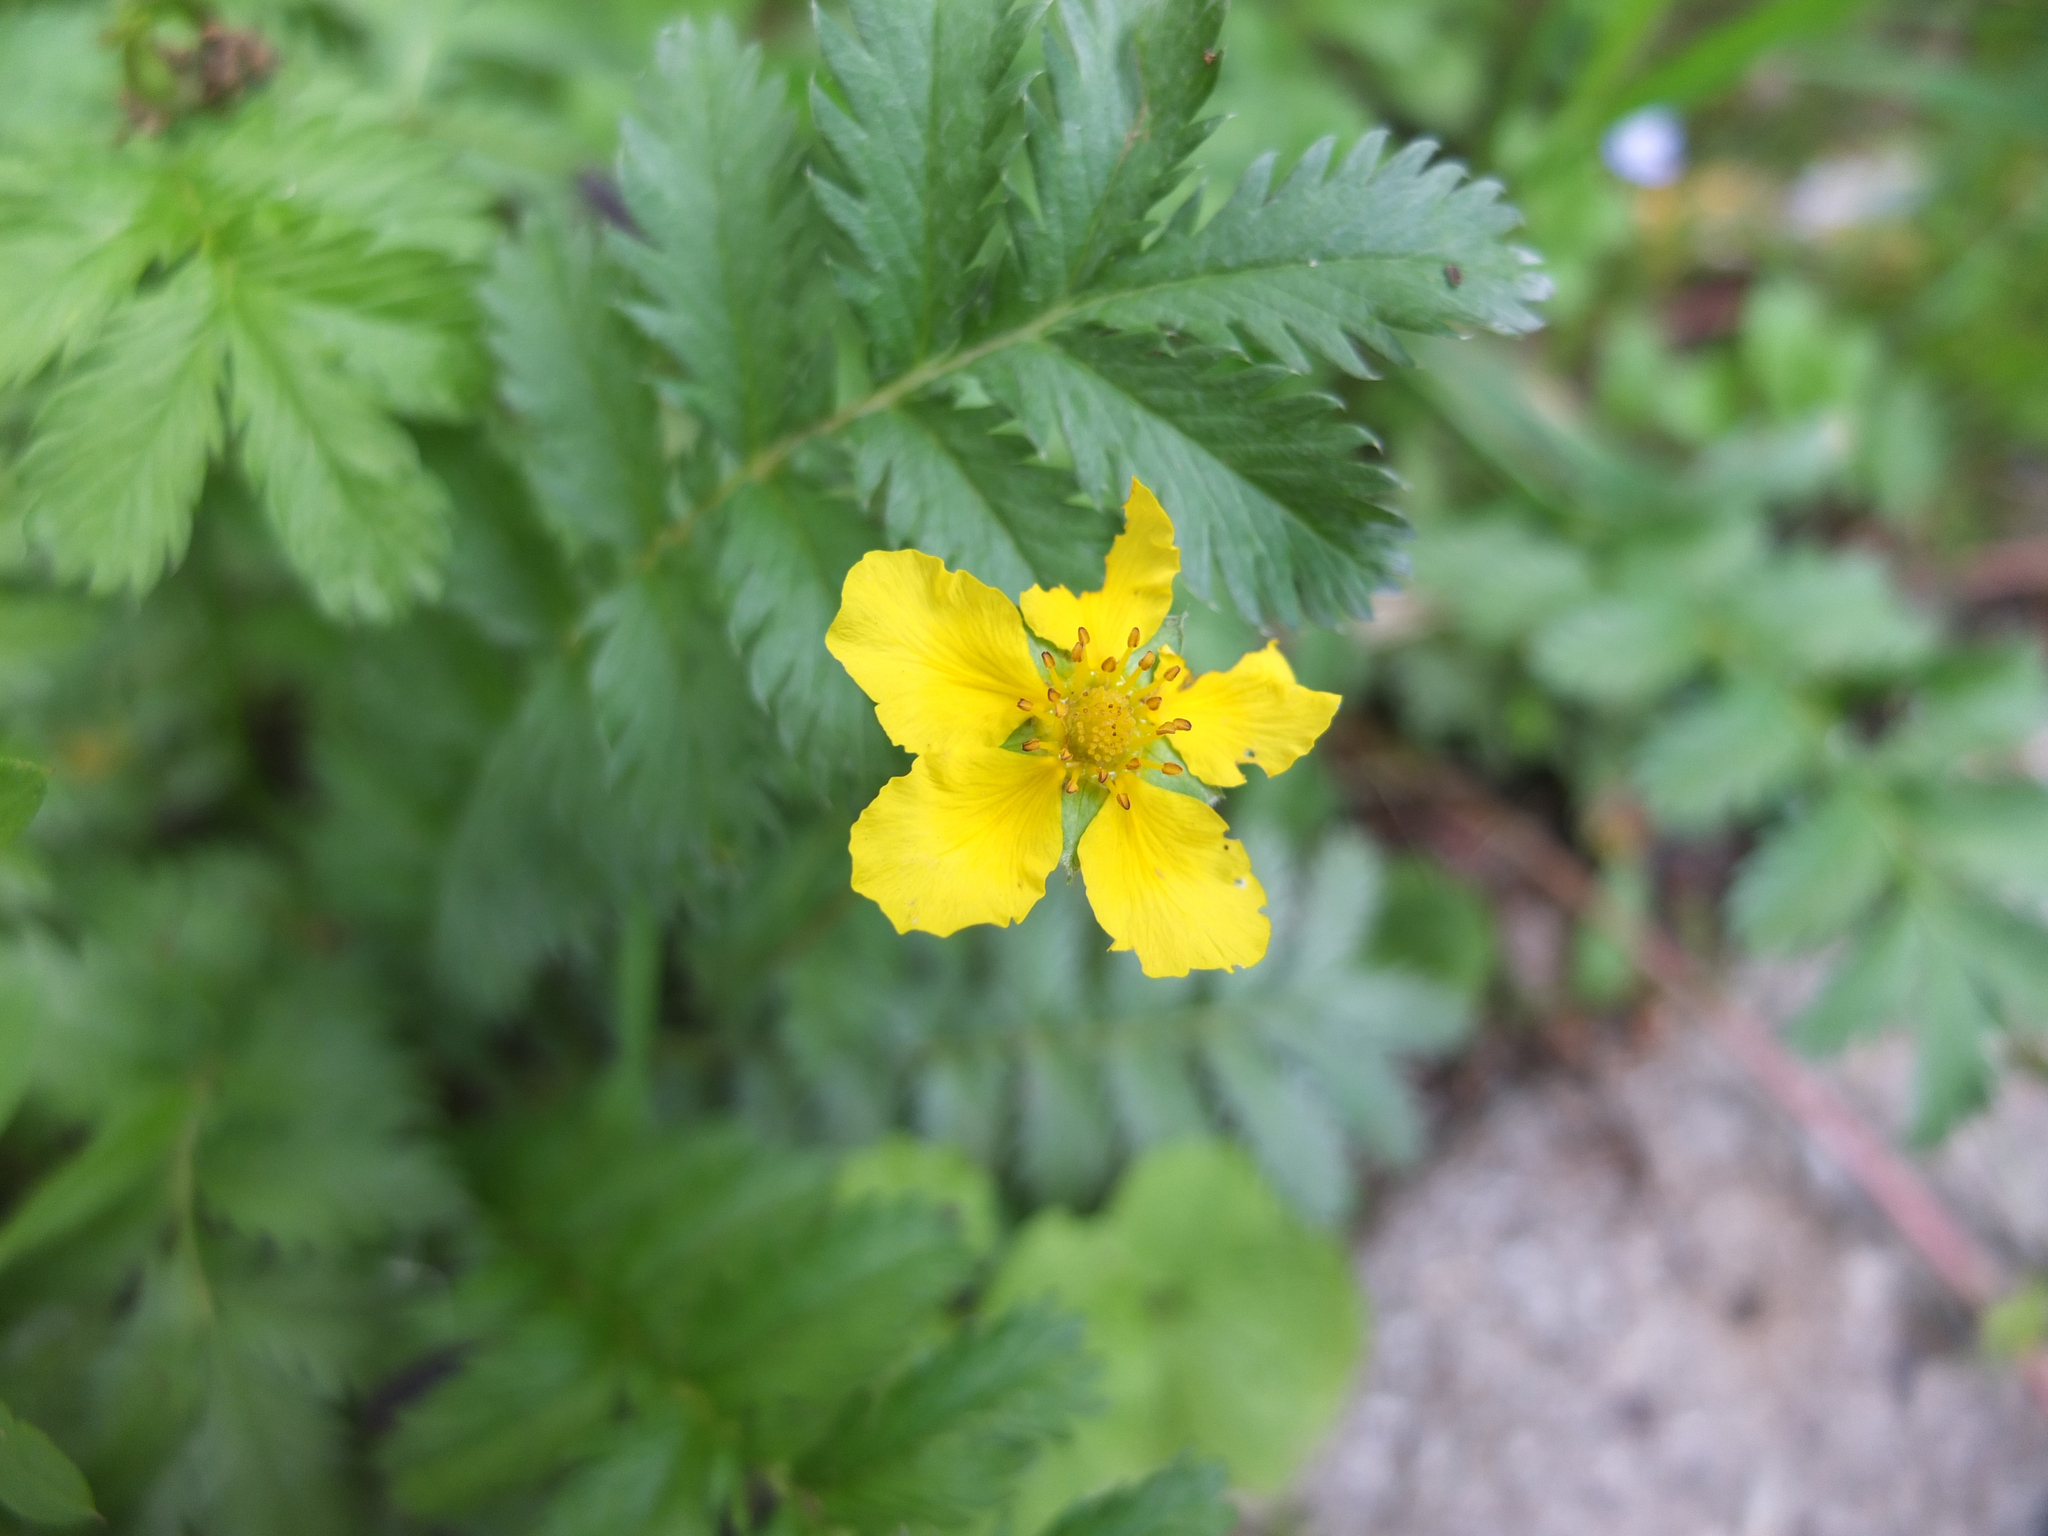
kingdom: Plantae
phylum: Tracheophyta
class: Magnoliopsida
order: Rosales
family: Rosaceae
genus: Argentina
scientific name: Argentina anserina
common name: Common silverweed
